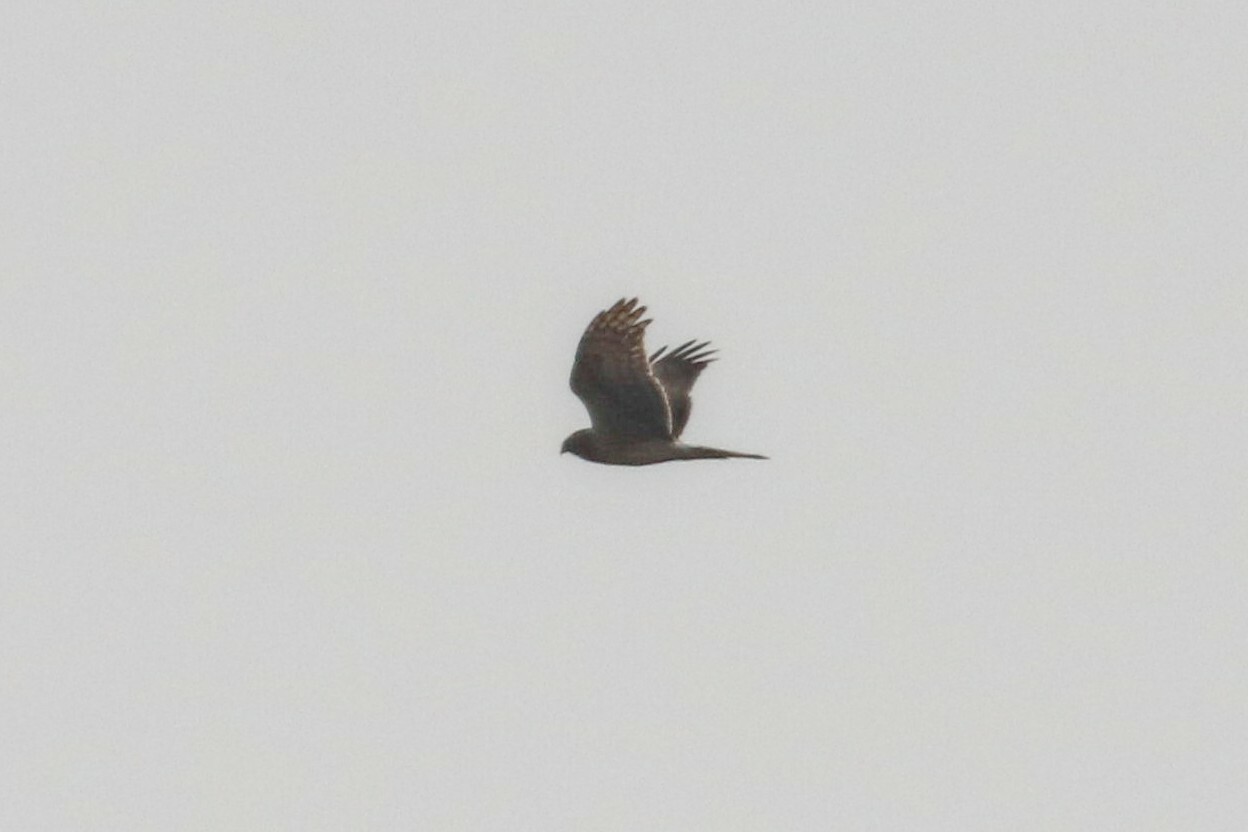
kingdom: Animalia
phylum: Chordata
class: Aves
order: Accipitriformes
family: Accipitridae
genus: Circus
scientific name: Circus cyaneus
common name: Hen harrier
